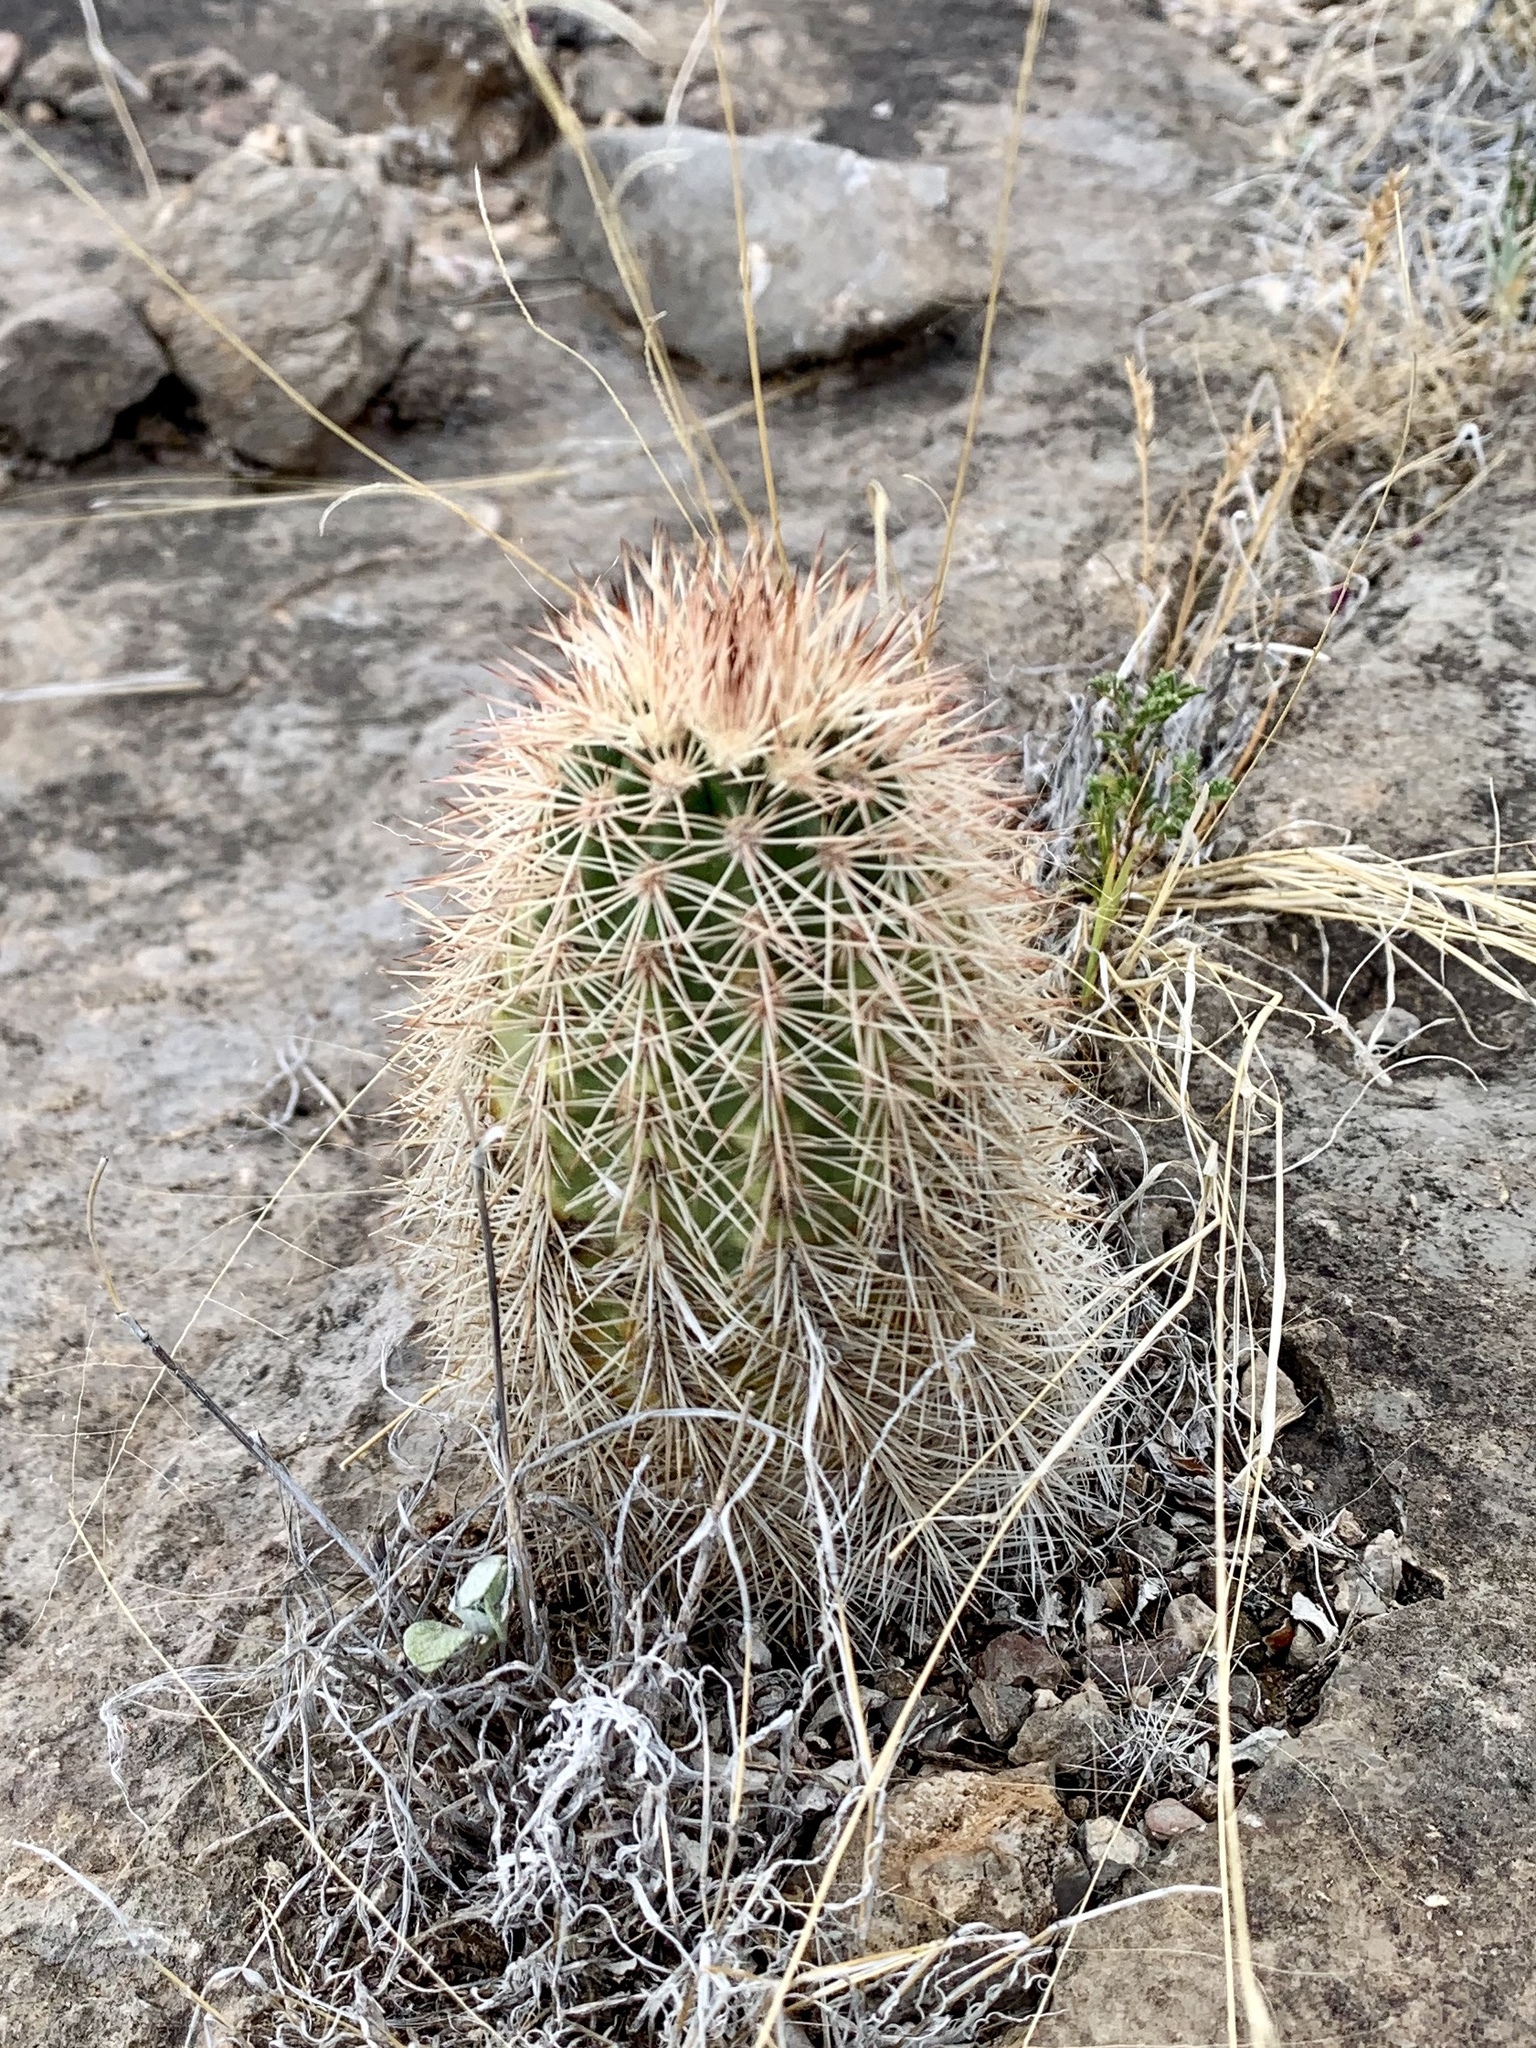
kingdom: Plantae
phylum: Tracheophyta
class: Magnoliopsida
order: Caryophyllales
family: Cactaceae
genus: Echinocereus
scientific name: Echinocereus dasyacanthus
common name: Spiny hedgehog cactus
